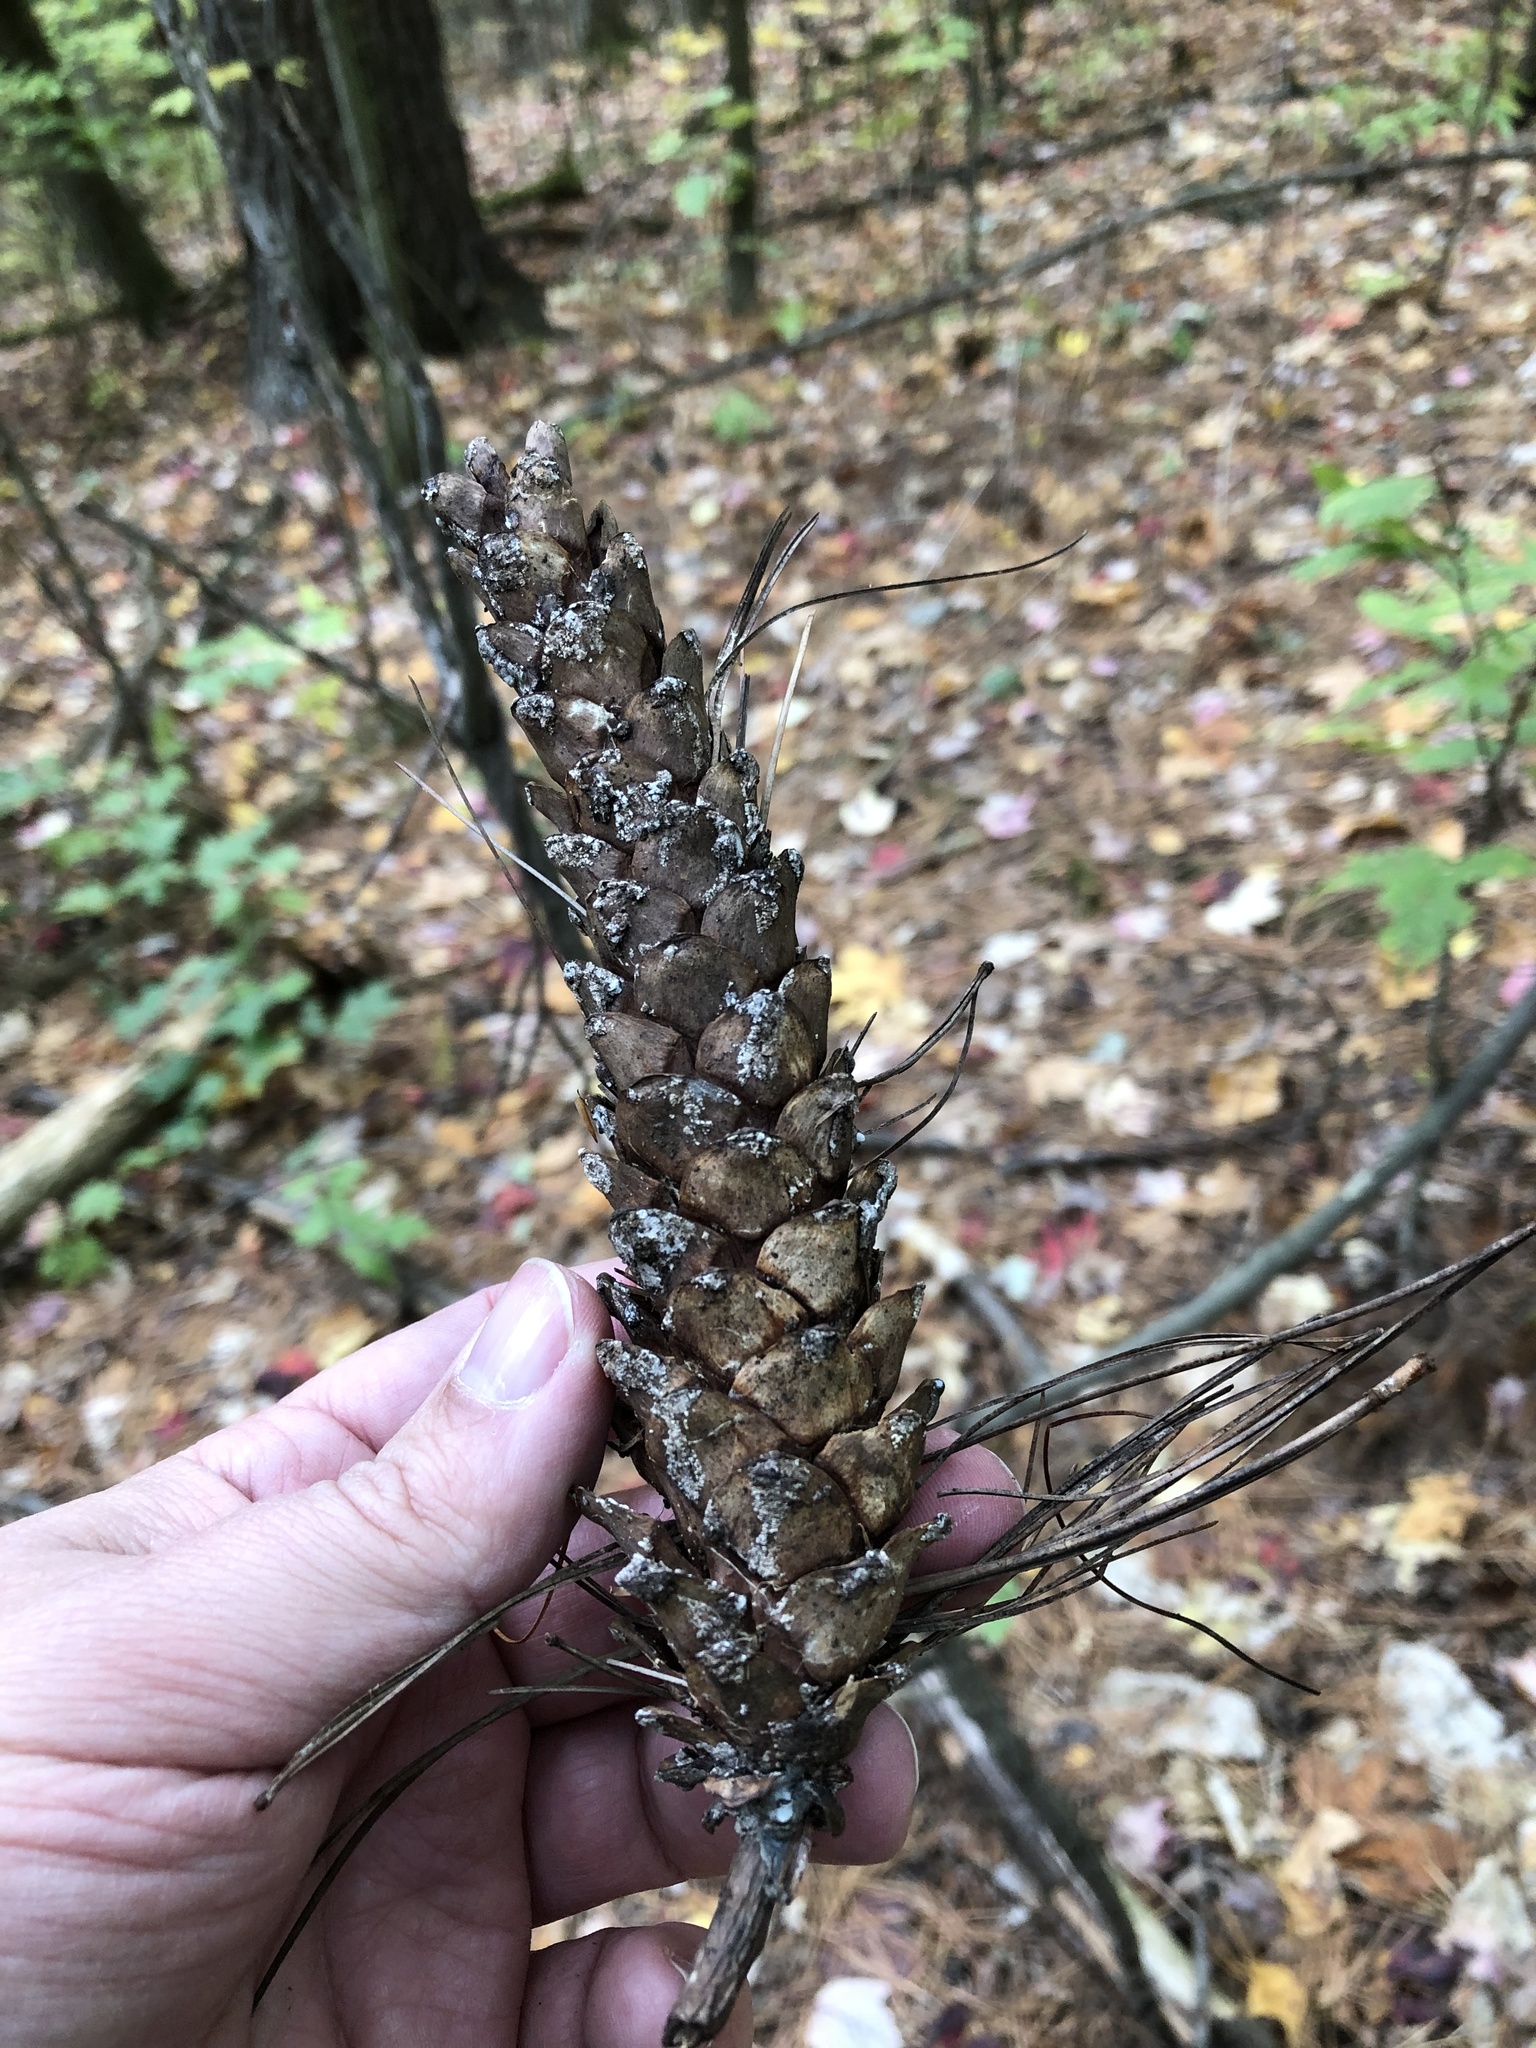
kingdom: Plantae
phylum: Tracheophyta
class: Pinopsida
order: Pinales
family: Pinaceae
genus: Pinus
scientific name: Pinus strobus
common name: Weymouth pine
